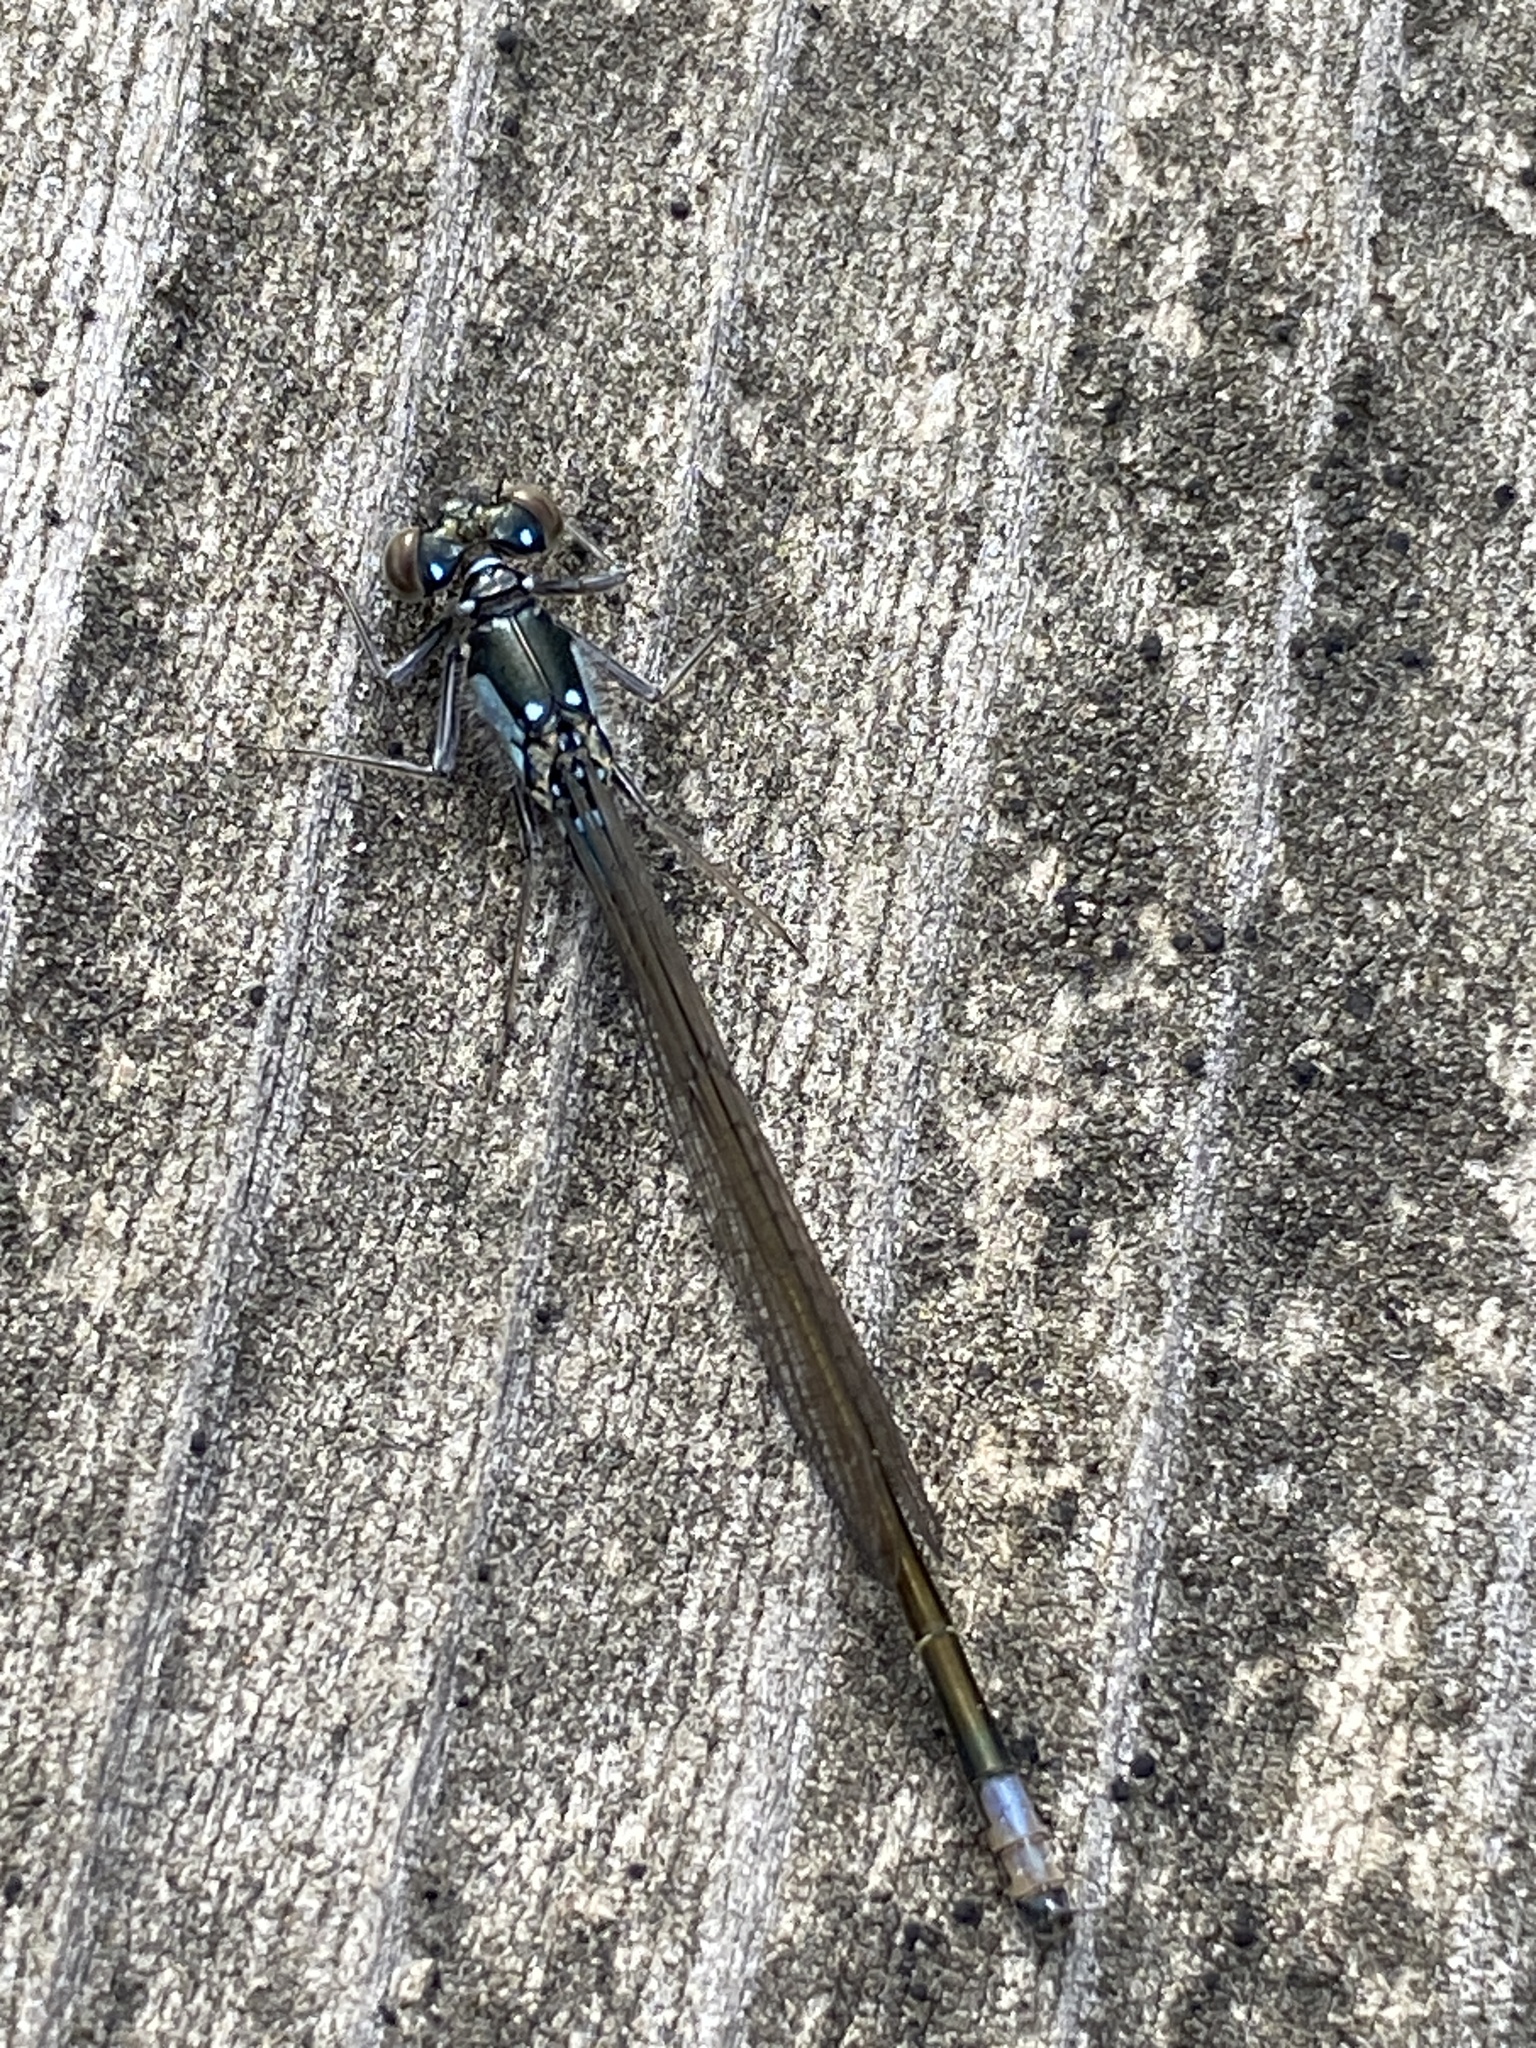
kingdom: Animalia
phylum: Arthropoda
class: Insecta
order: Odonata
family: Coenagrionidae
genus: Ischnura
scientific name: Ischnura cervula
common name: Pacific forktail
